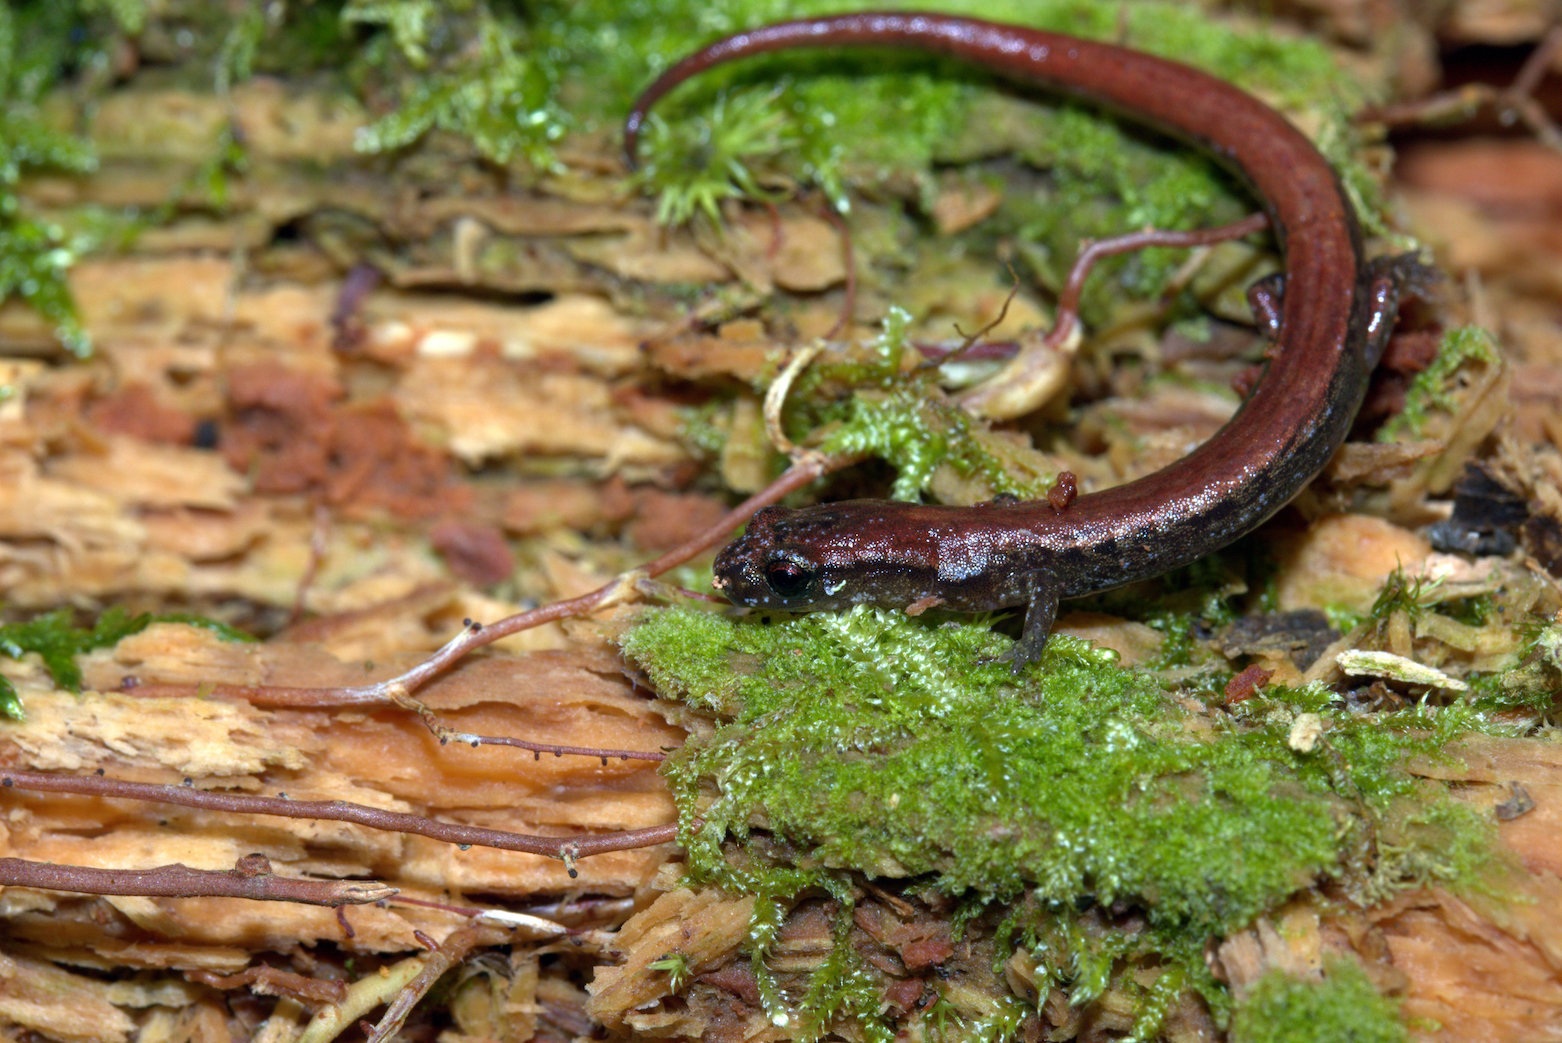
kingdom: Animalia
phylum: Chordata
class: Amphibia
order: Caudata
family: Plethodontidae
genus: Chiropterotriton
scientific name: Chiropterotriton terrestris
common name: Terrestrial flat-footed salamander
